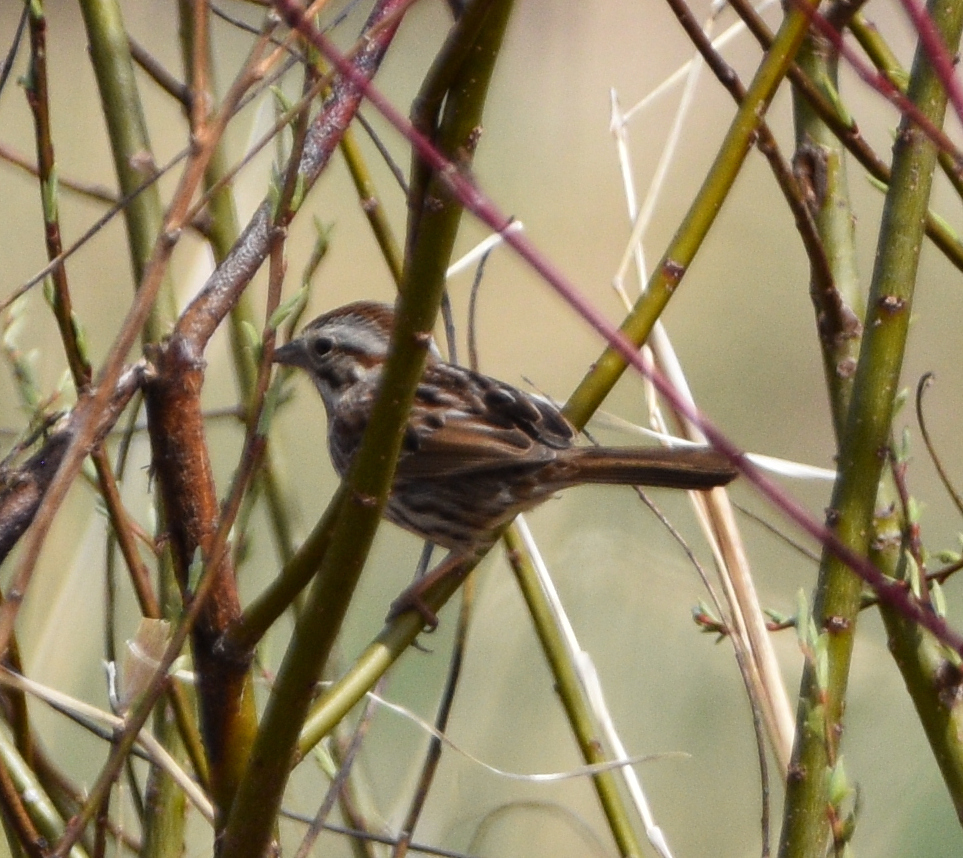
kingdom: Animalia
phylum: Chordata
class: Aves
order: Passeriformes
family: Passerellidae
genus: Melospiza
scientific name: Melospiza melodia
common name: Song sparrow
